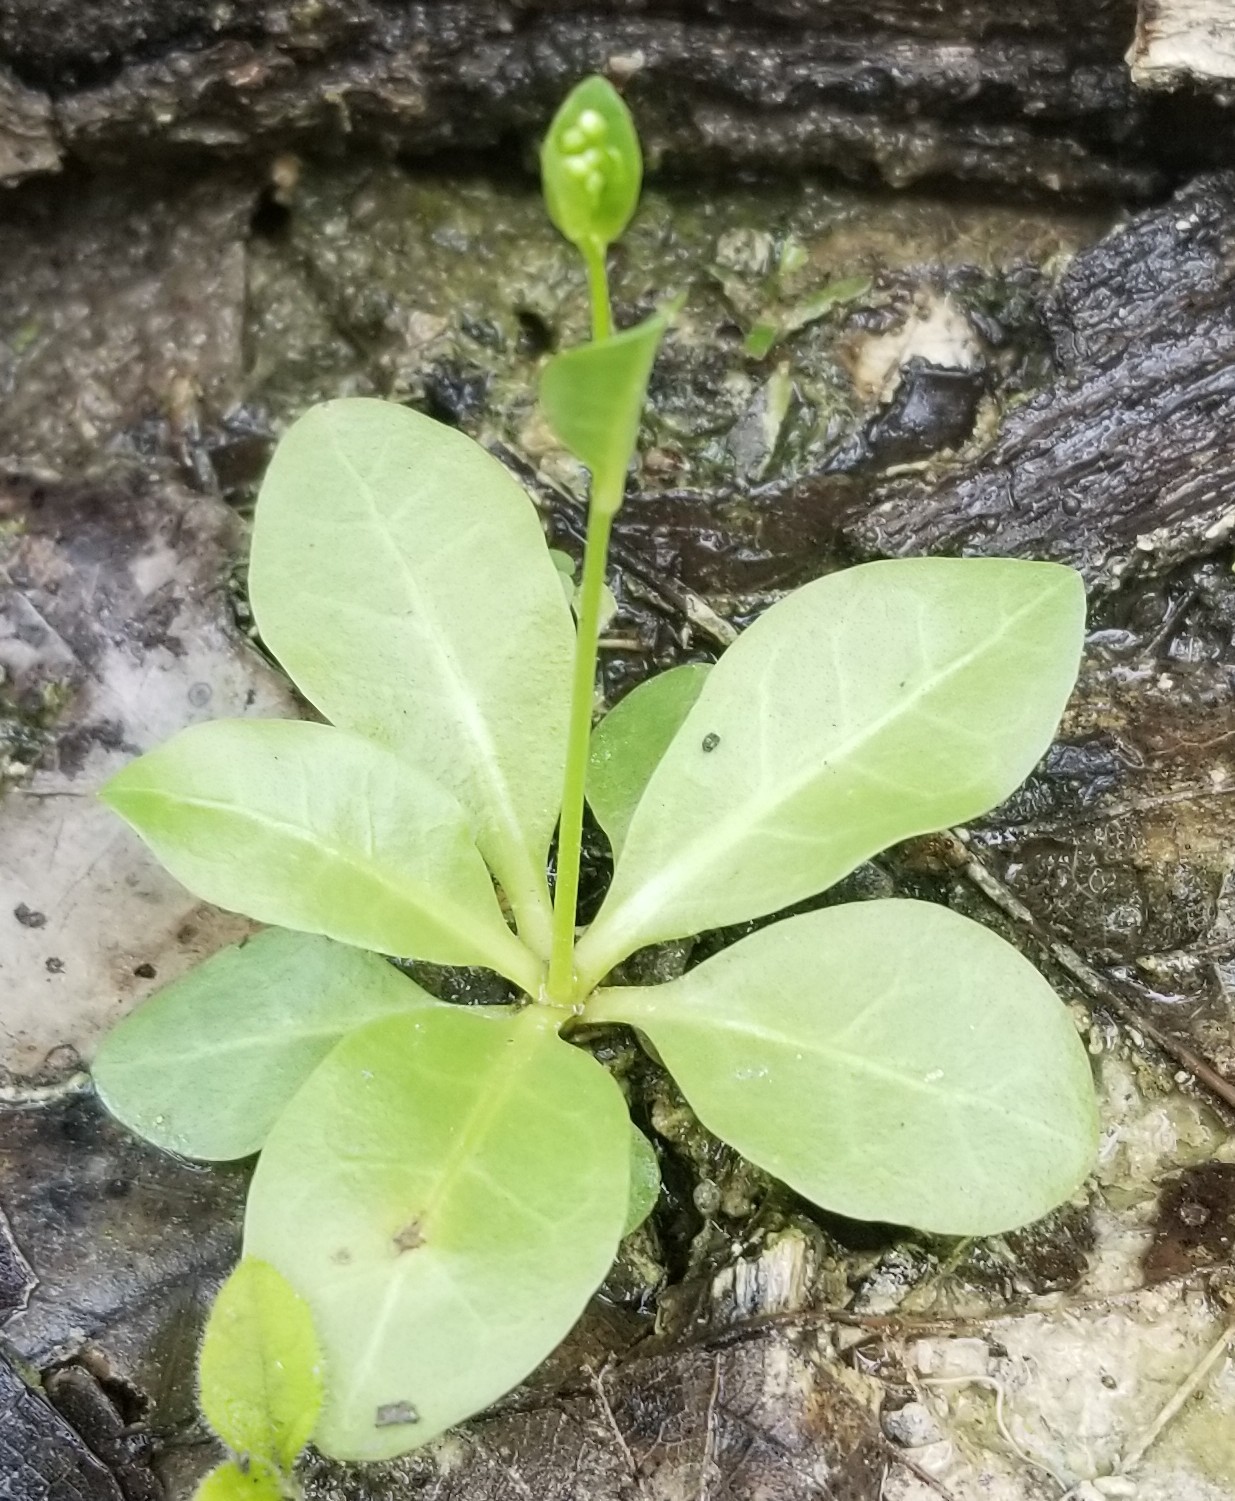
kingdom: Plantae
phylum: Tracheophyta
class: Magnoliopsida
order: Ericales
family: Primulaceae
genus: Samolus
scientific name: Samolus parviflorus
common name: False water pimpernel
